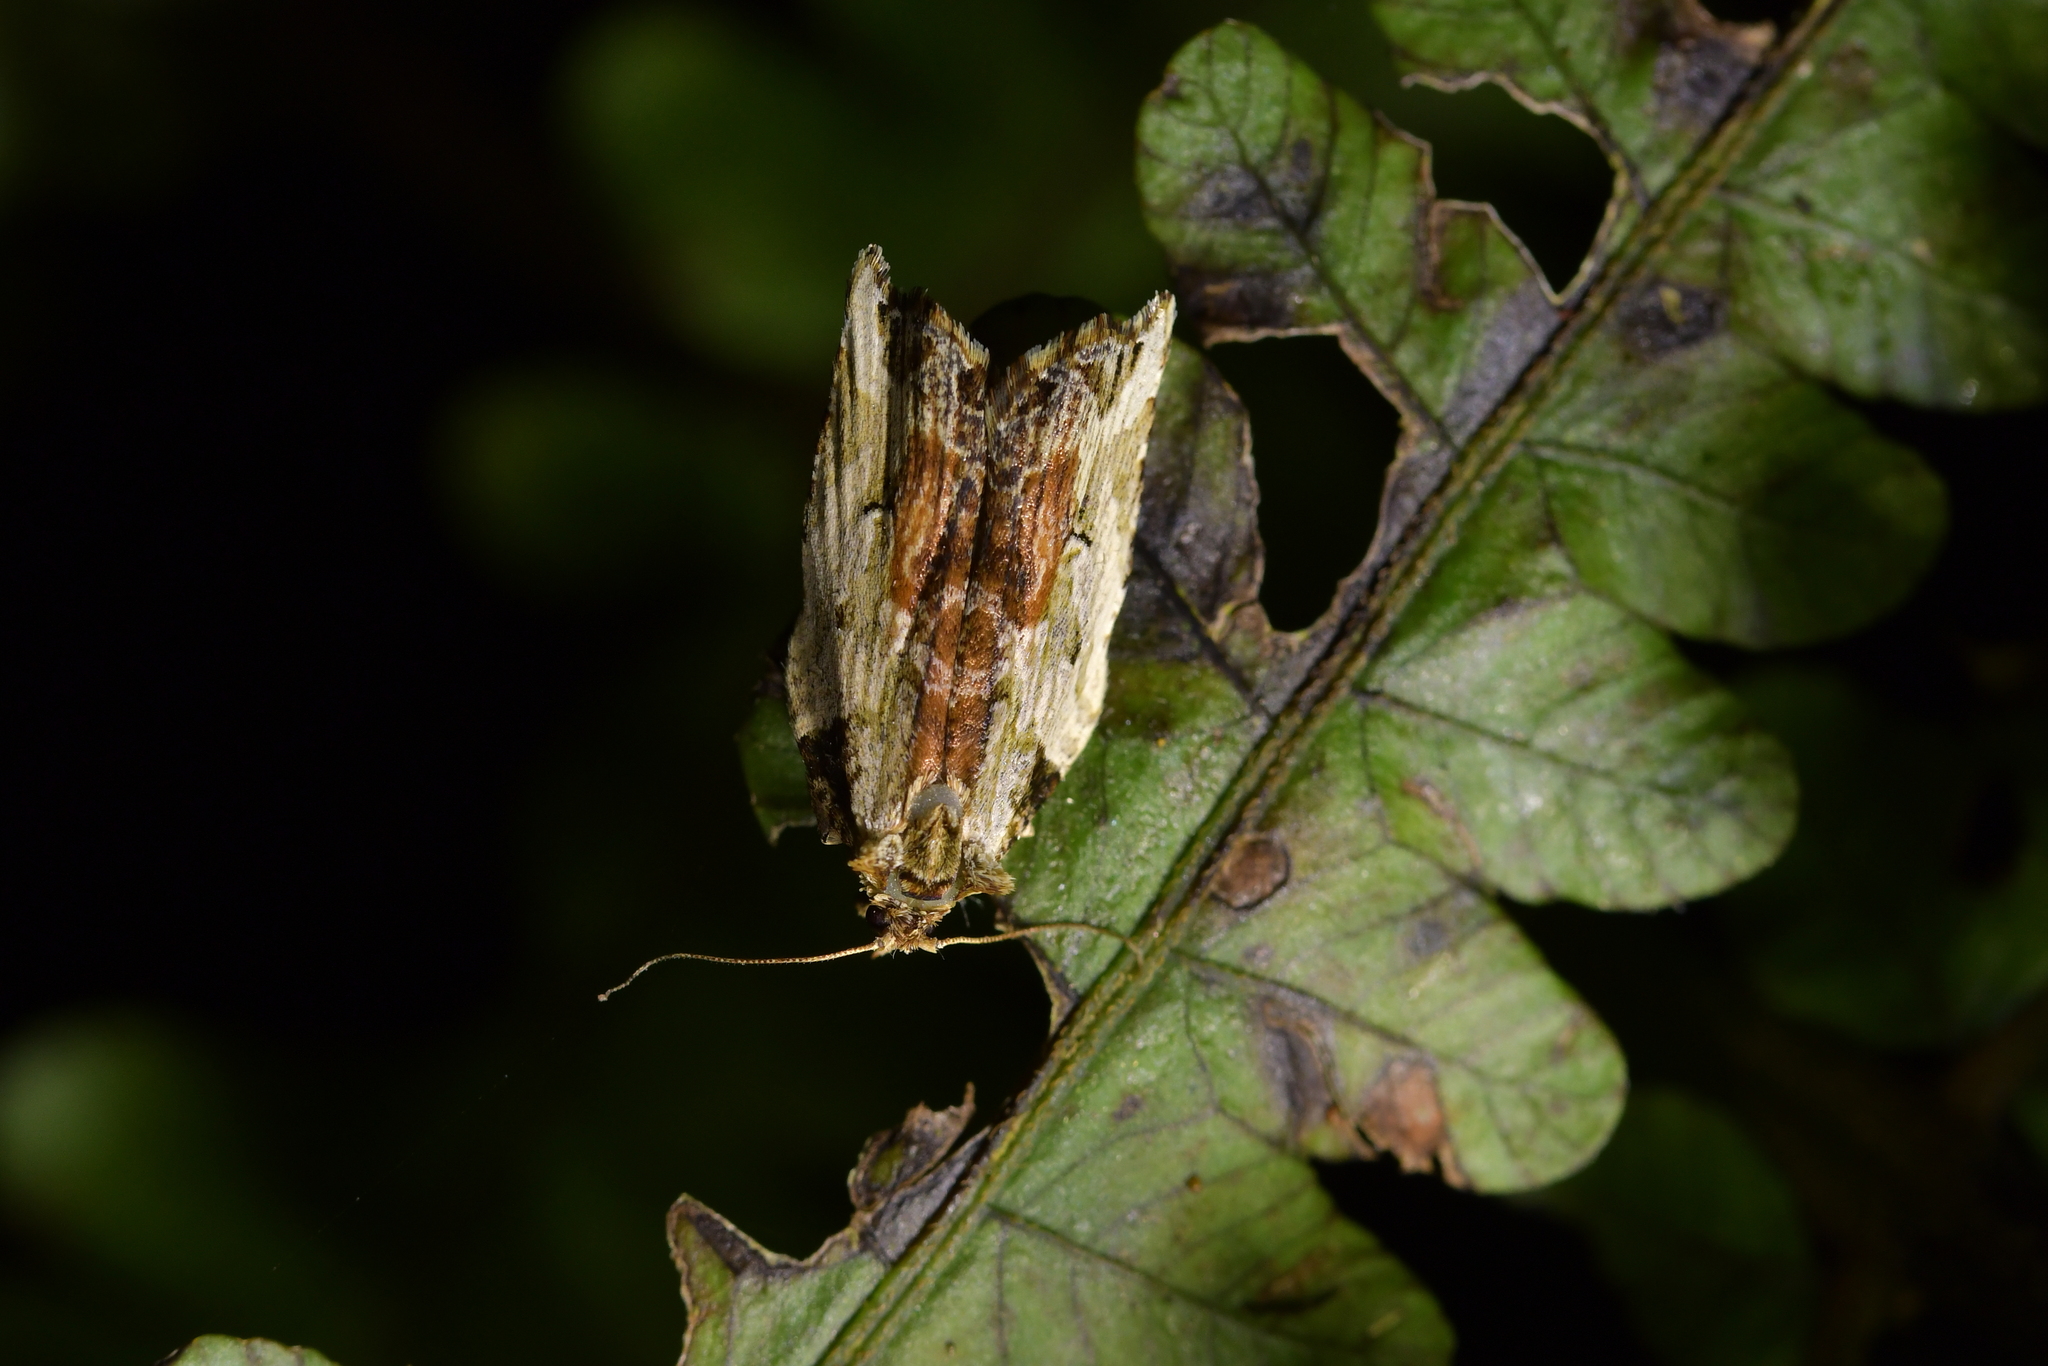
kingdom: Animalia
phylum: Arthropoda
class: Insecta
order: Lepidoptera
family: Tortricidae
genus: Epalxiphora
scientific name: Epalxiphora axenana
